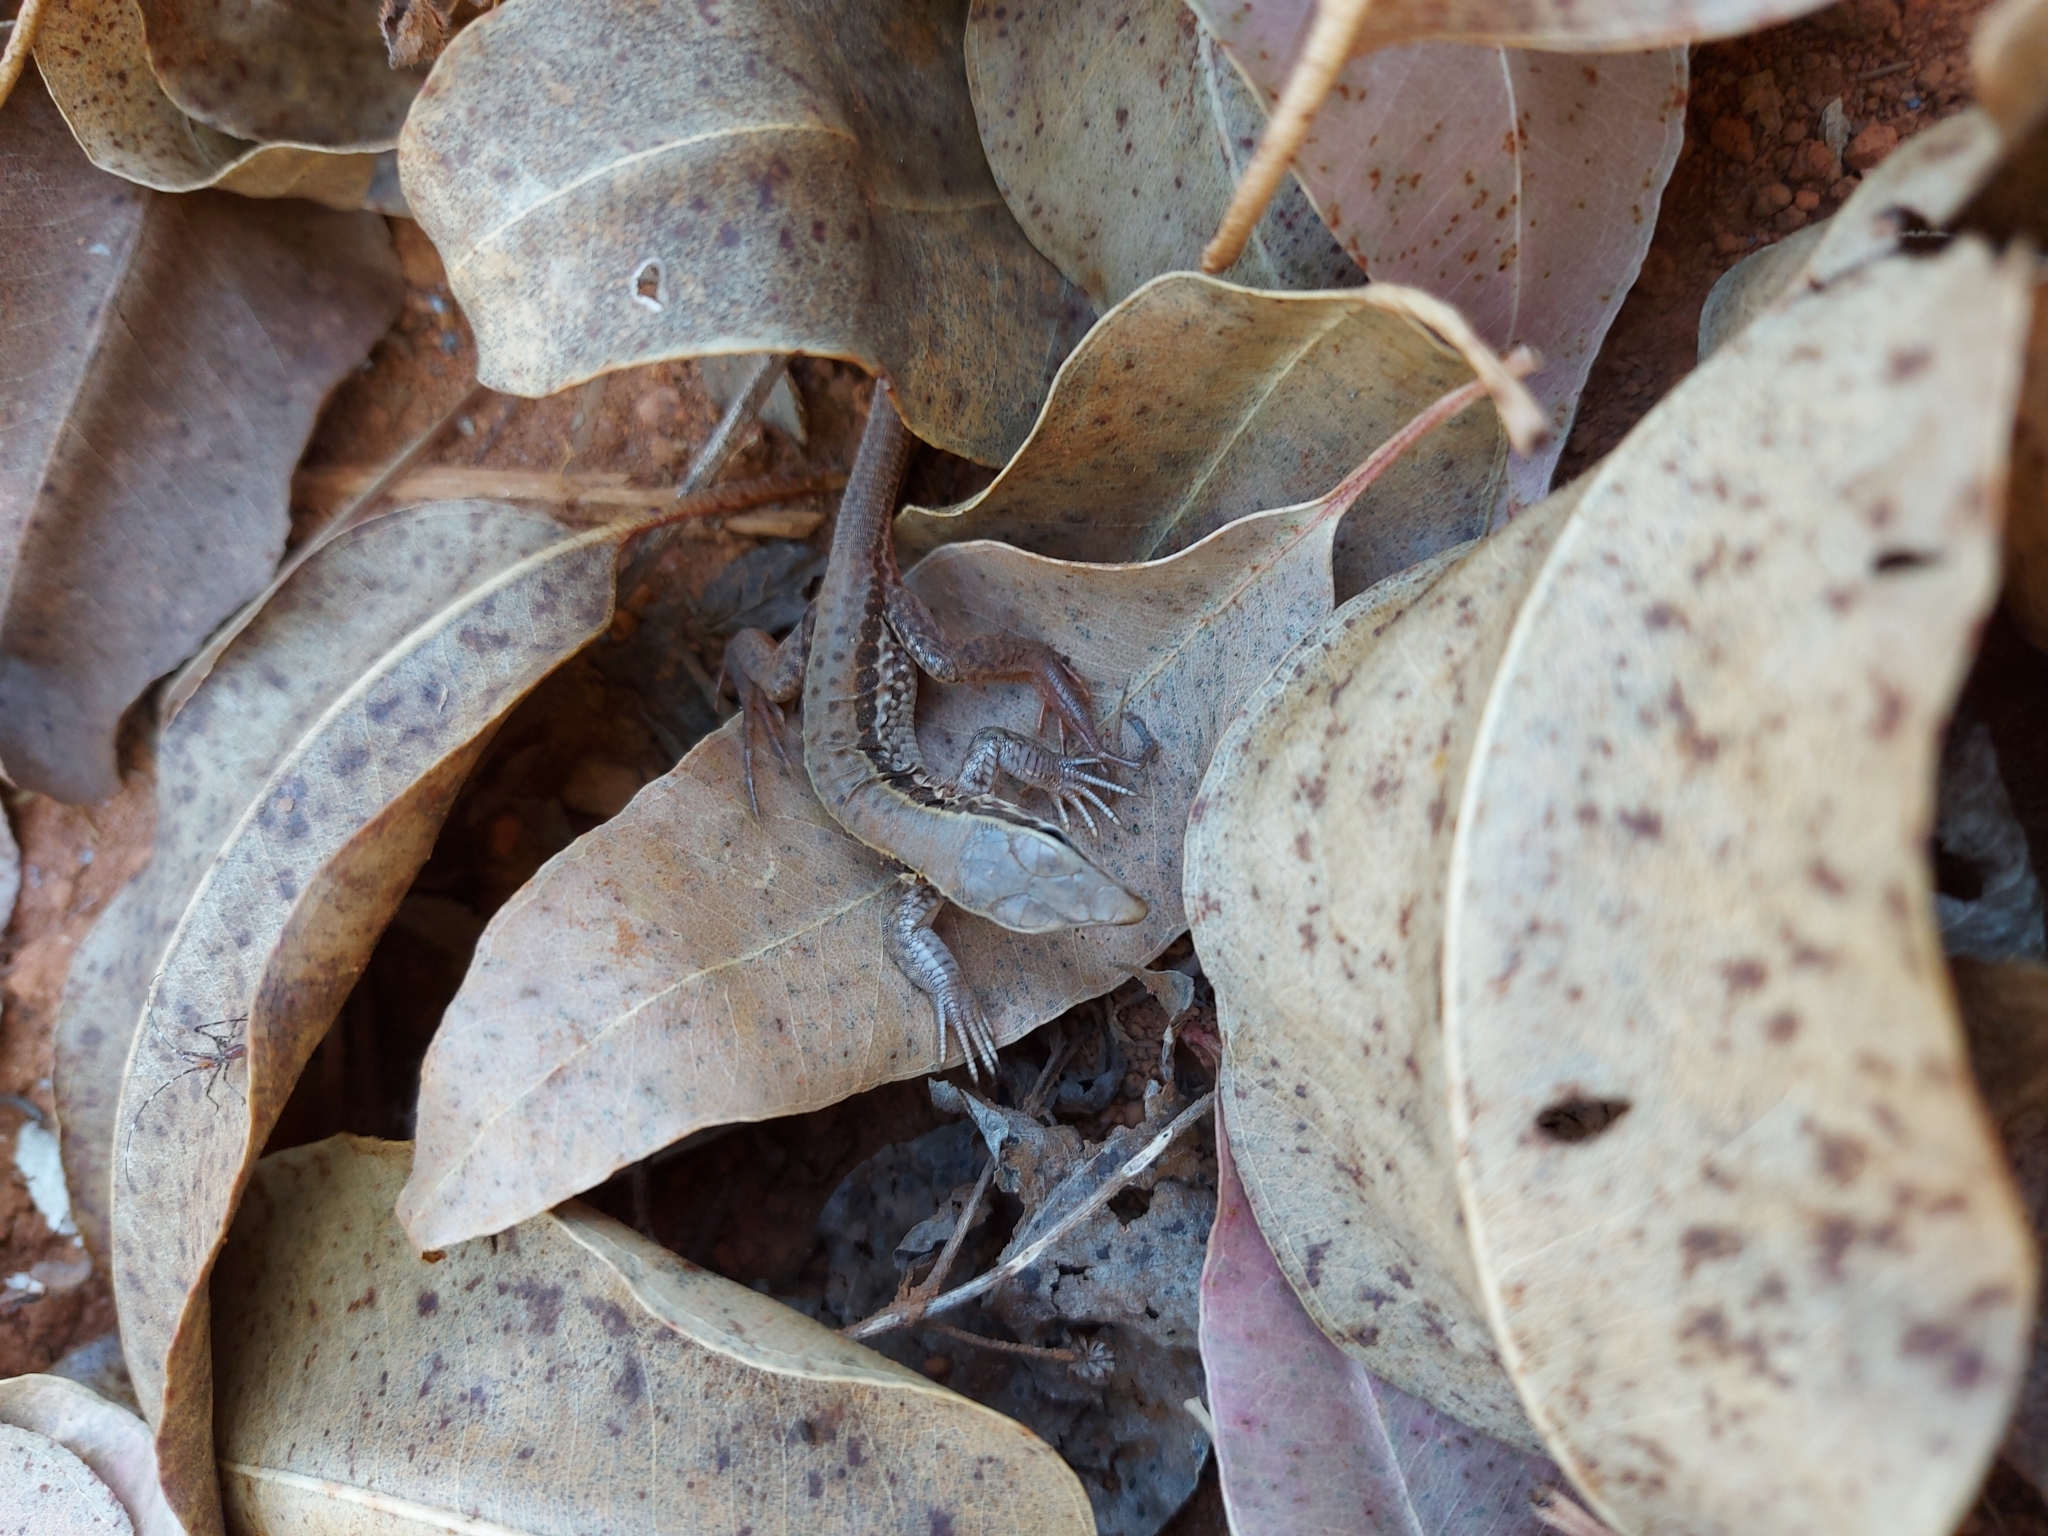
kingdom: Animalia
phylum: Chordata
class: Squamata
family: Teiidae
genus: Ameiva
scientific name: Ameiva ameiva
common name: Giant ameiva
